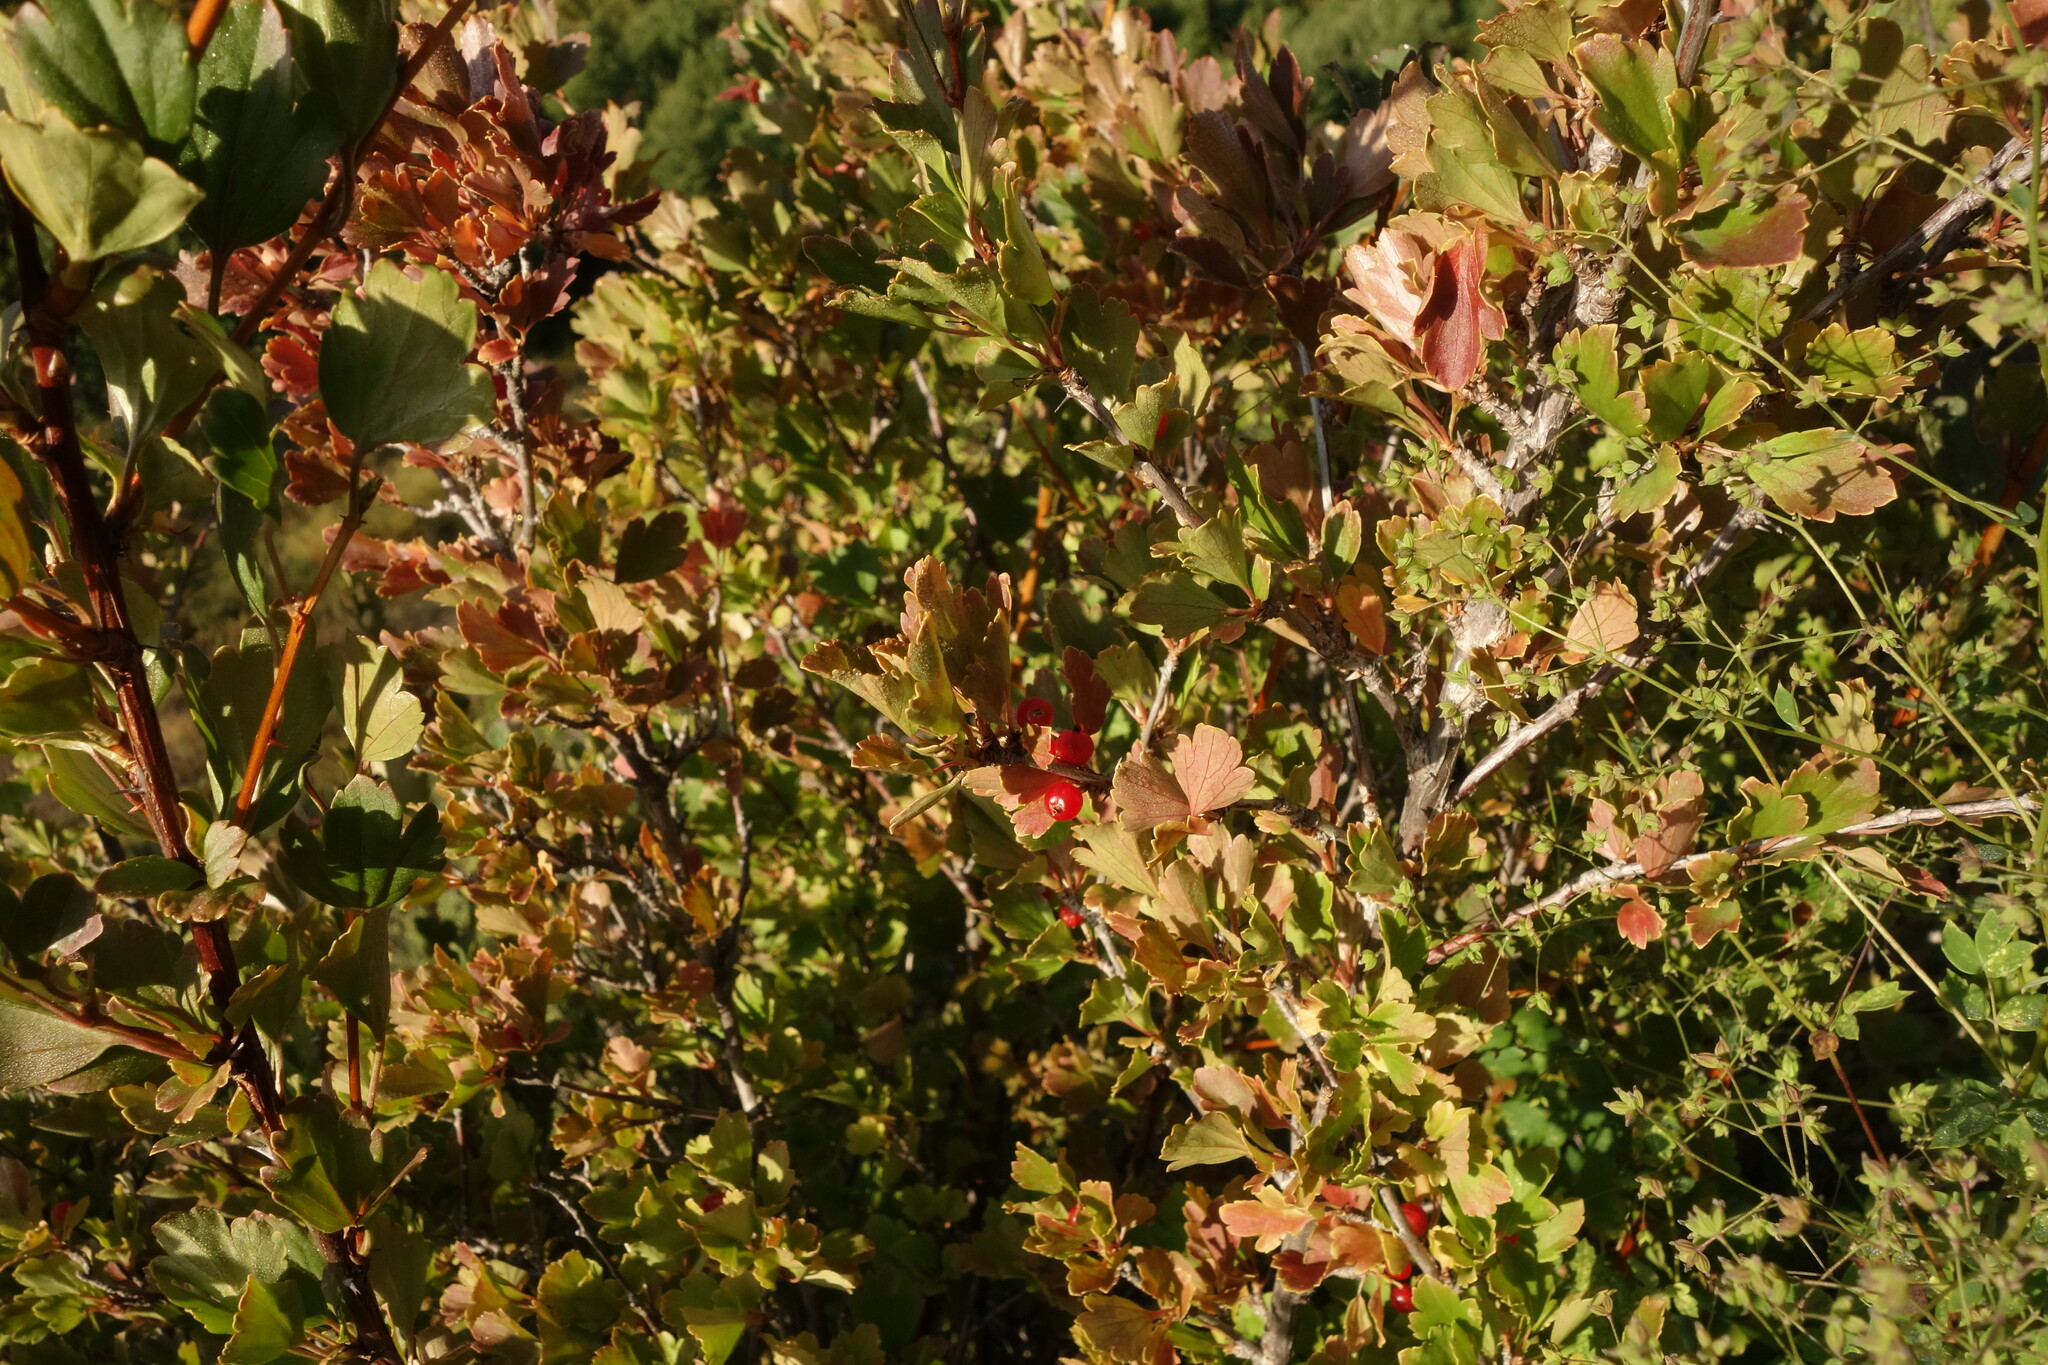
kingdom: Plantae
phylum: Tracheophyta
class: Magnoliopsida
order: Saxifragales
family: Grossulariaceae
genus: Ribes
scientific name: Ribes diacanthum
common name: Siberian currant
